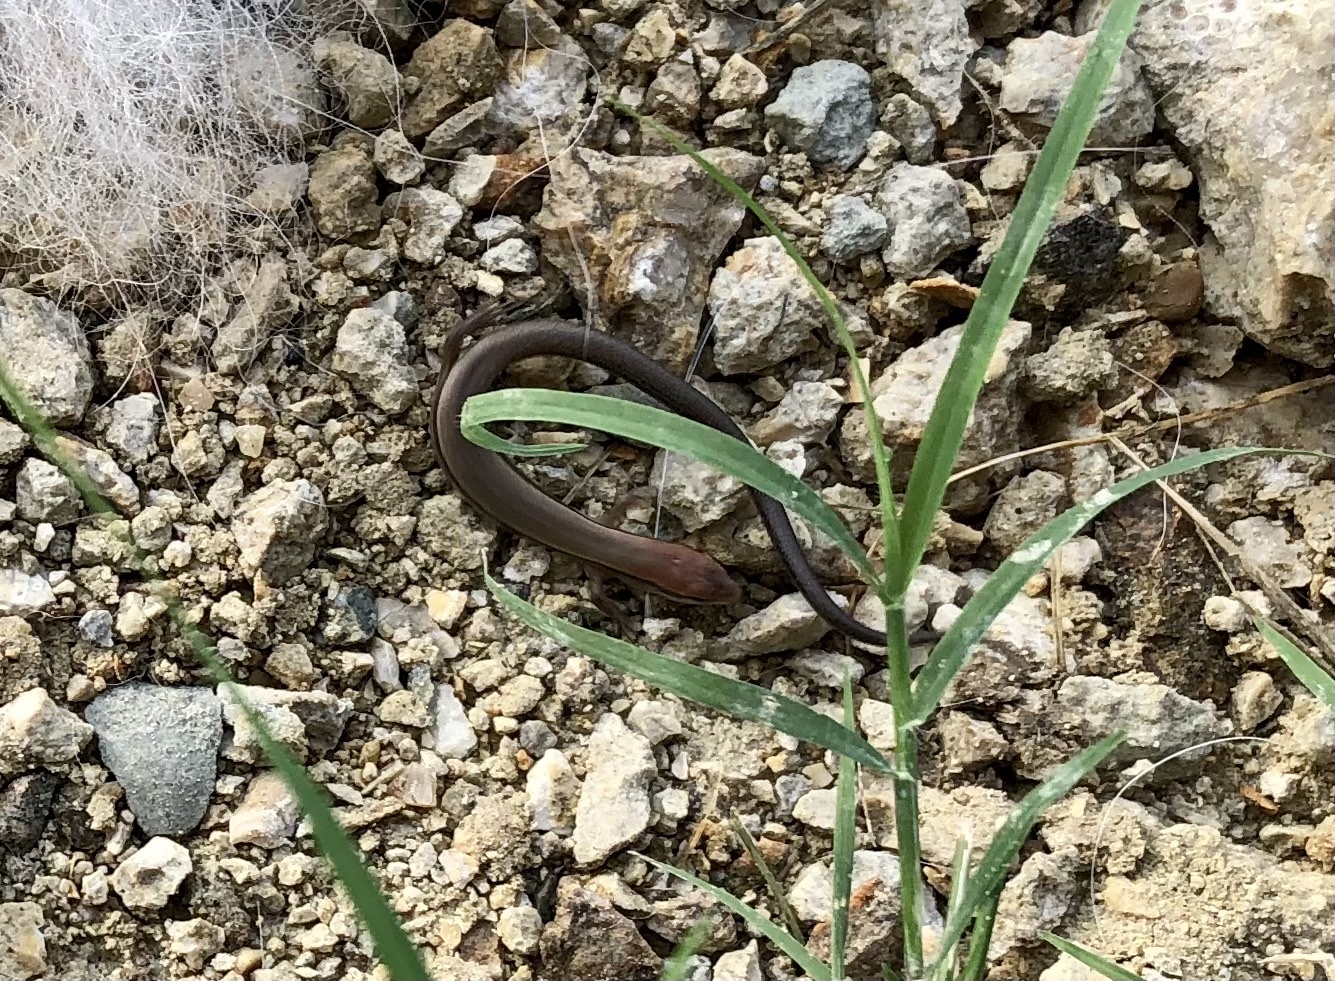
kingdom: Animalia
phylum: Chordata
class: Squamata
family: Scincidae
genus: Scincella
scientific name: Scincella lateralis
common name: Ground skink
